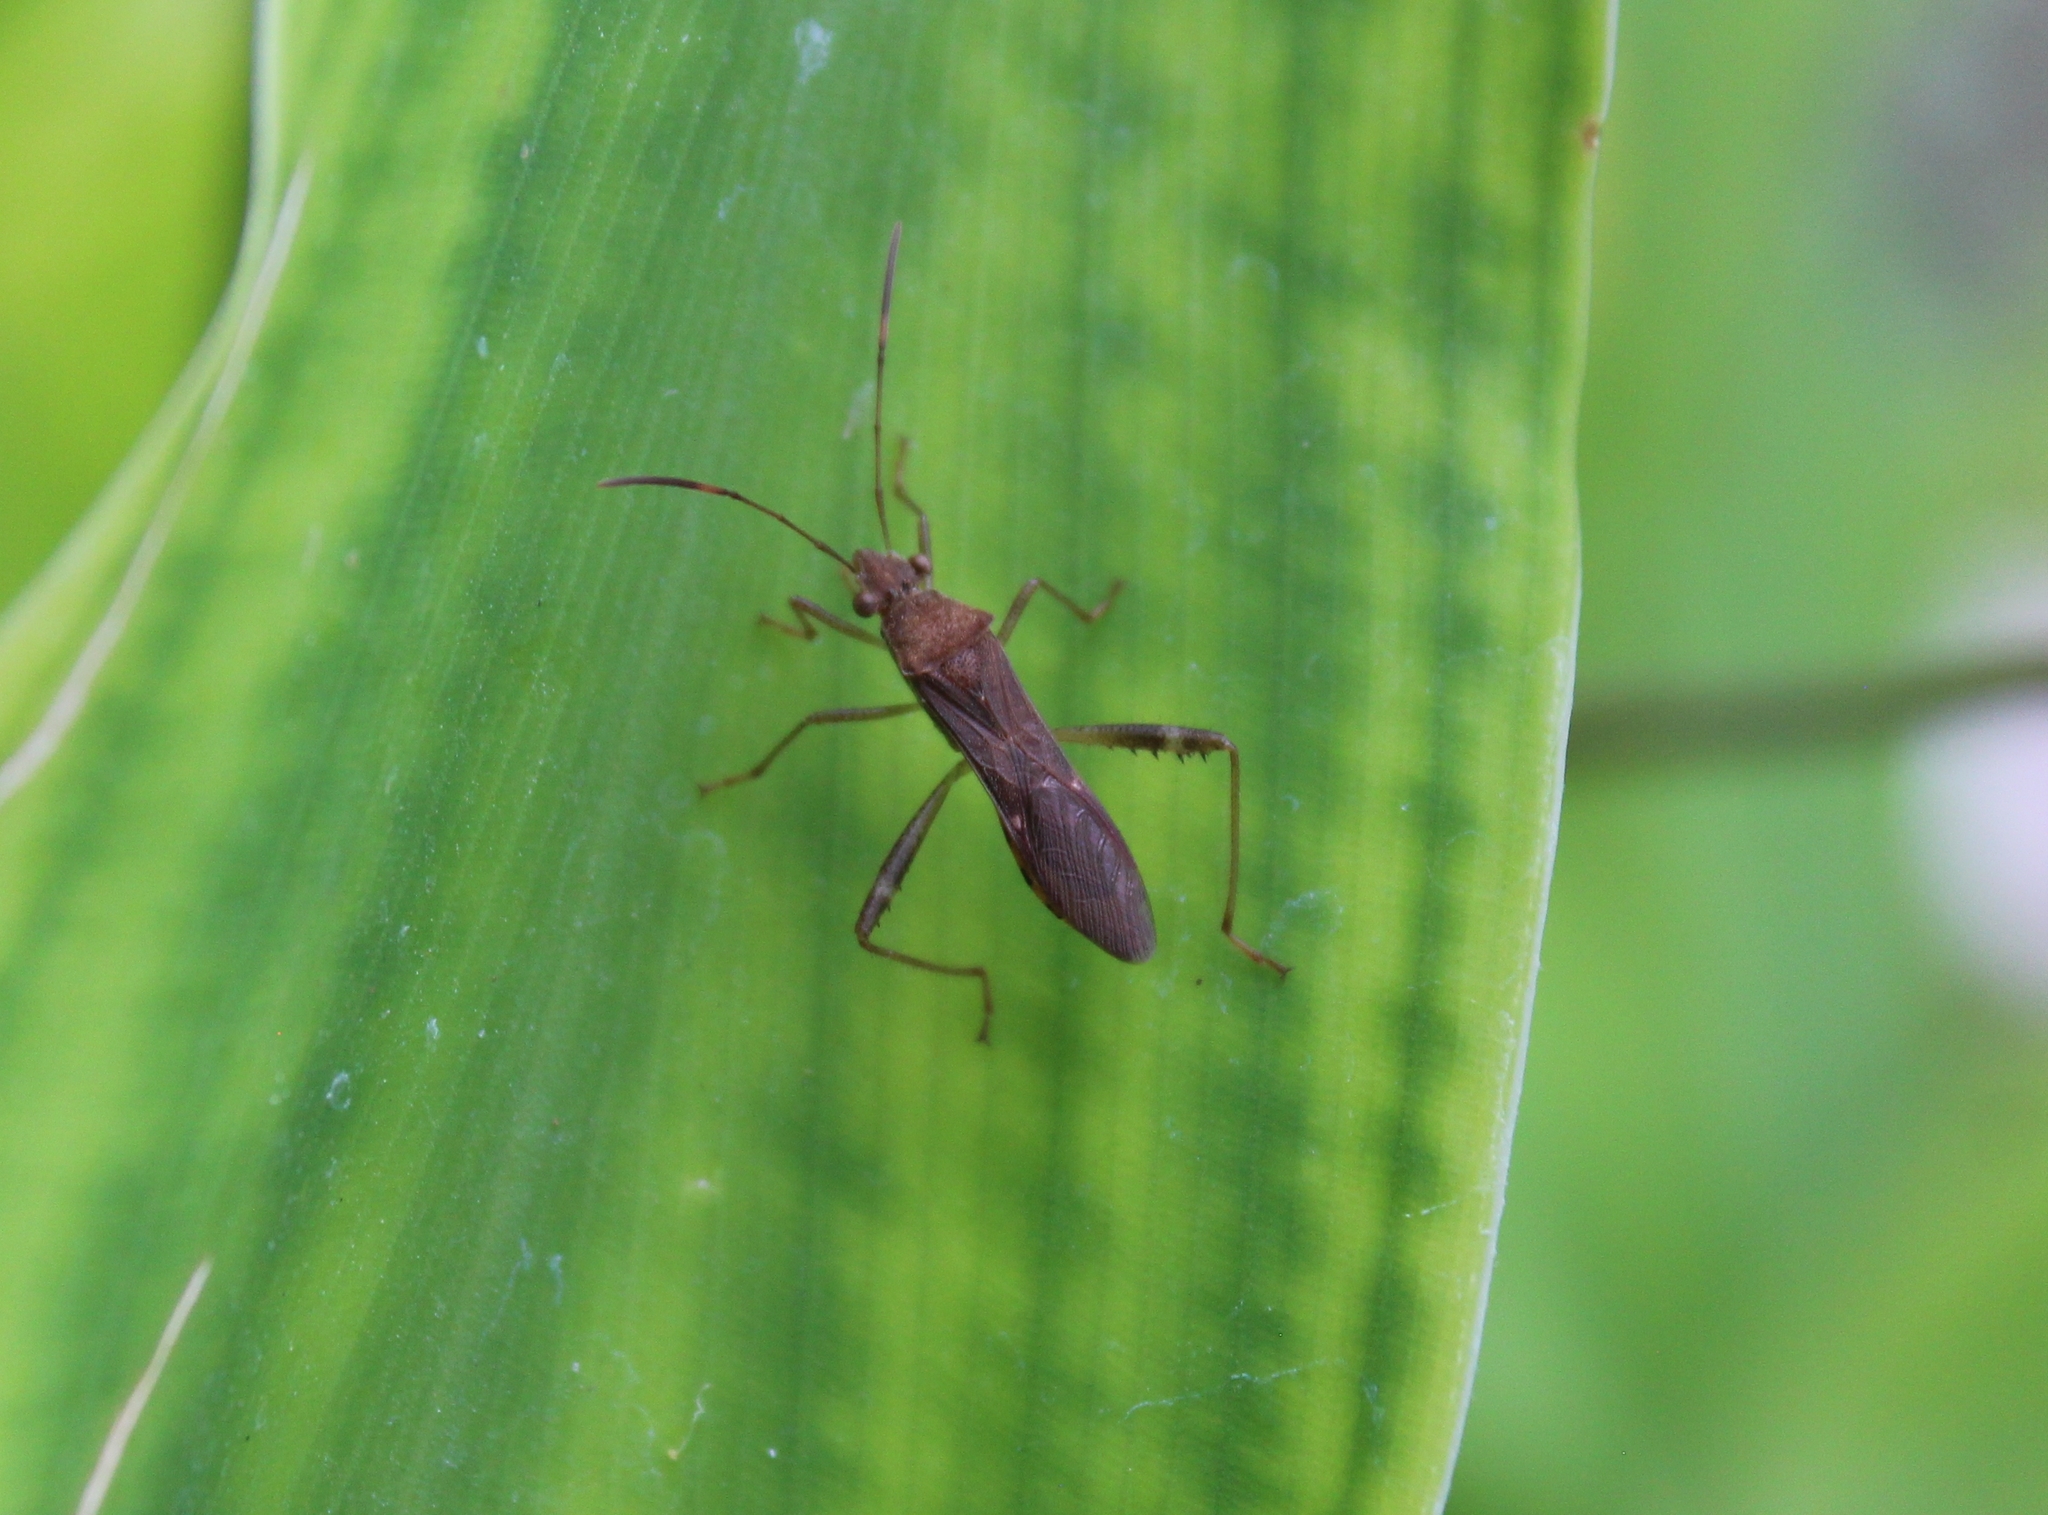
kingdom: Animalia
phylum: Arthropoda
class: Insecta
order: Hemiptera
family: Alydidae
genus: Burtinus
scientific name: Burtinus notatipennis
